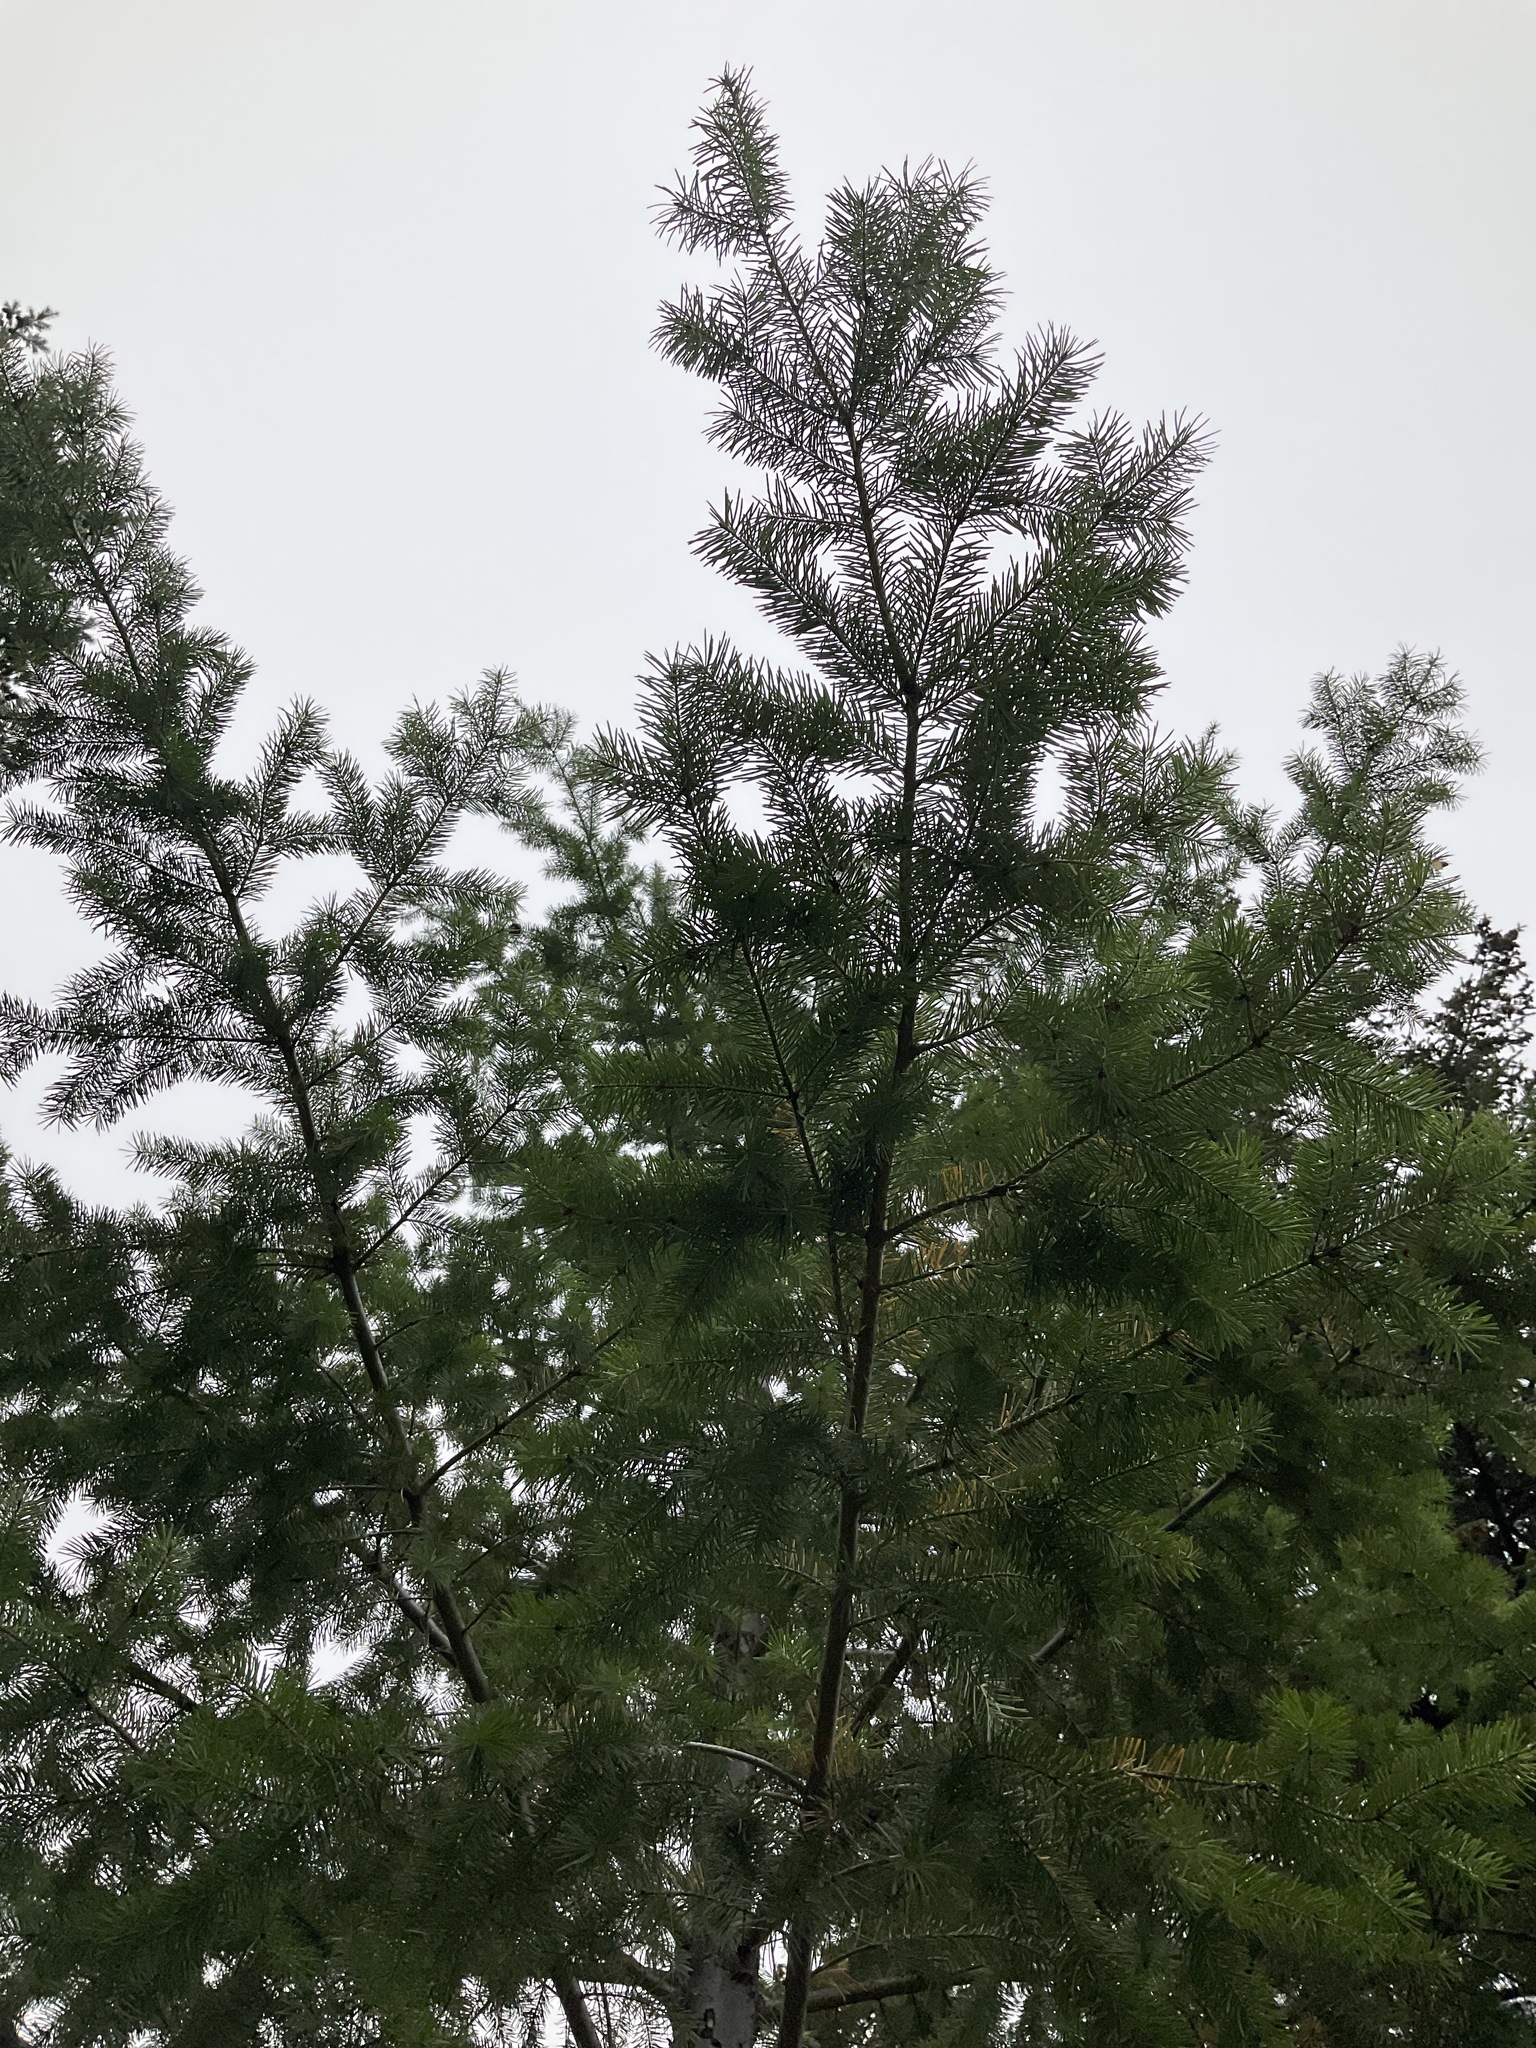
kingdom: Plantae
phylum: Tracheophyta
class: Pinopsida
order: Pinales
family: Pinaceae
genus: Pseudotsuga
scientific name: Pseudotsuga menziesii
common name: Douglas fir
